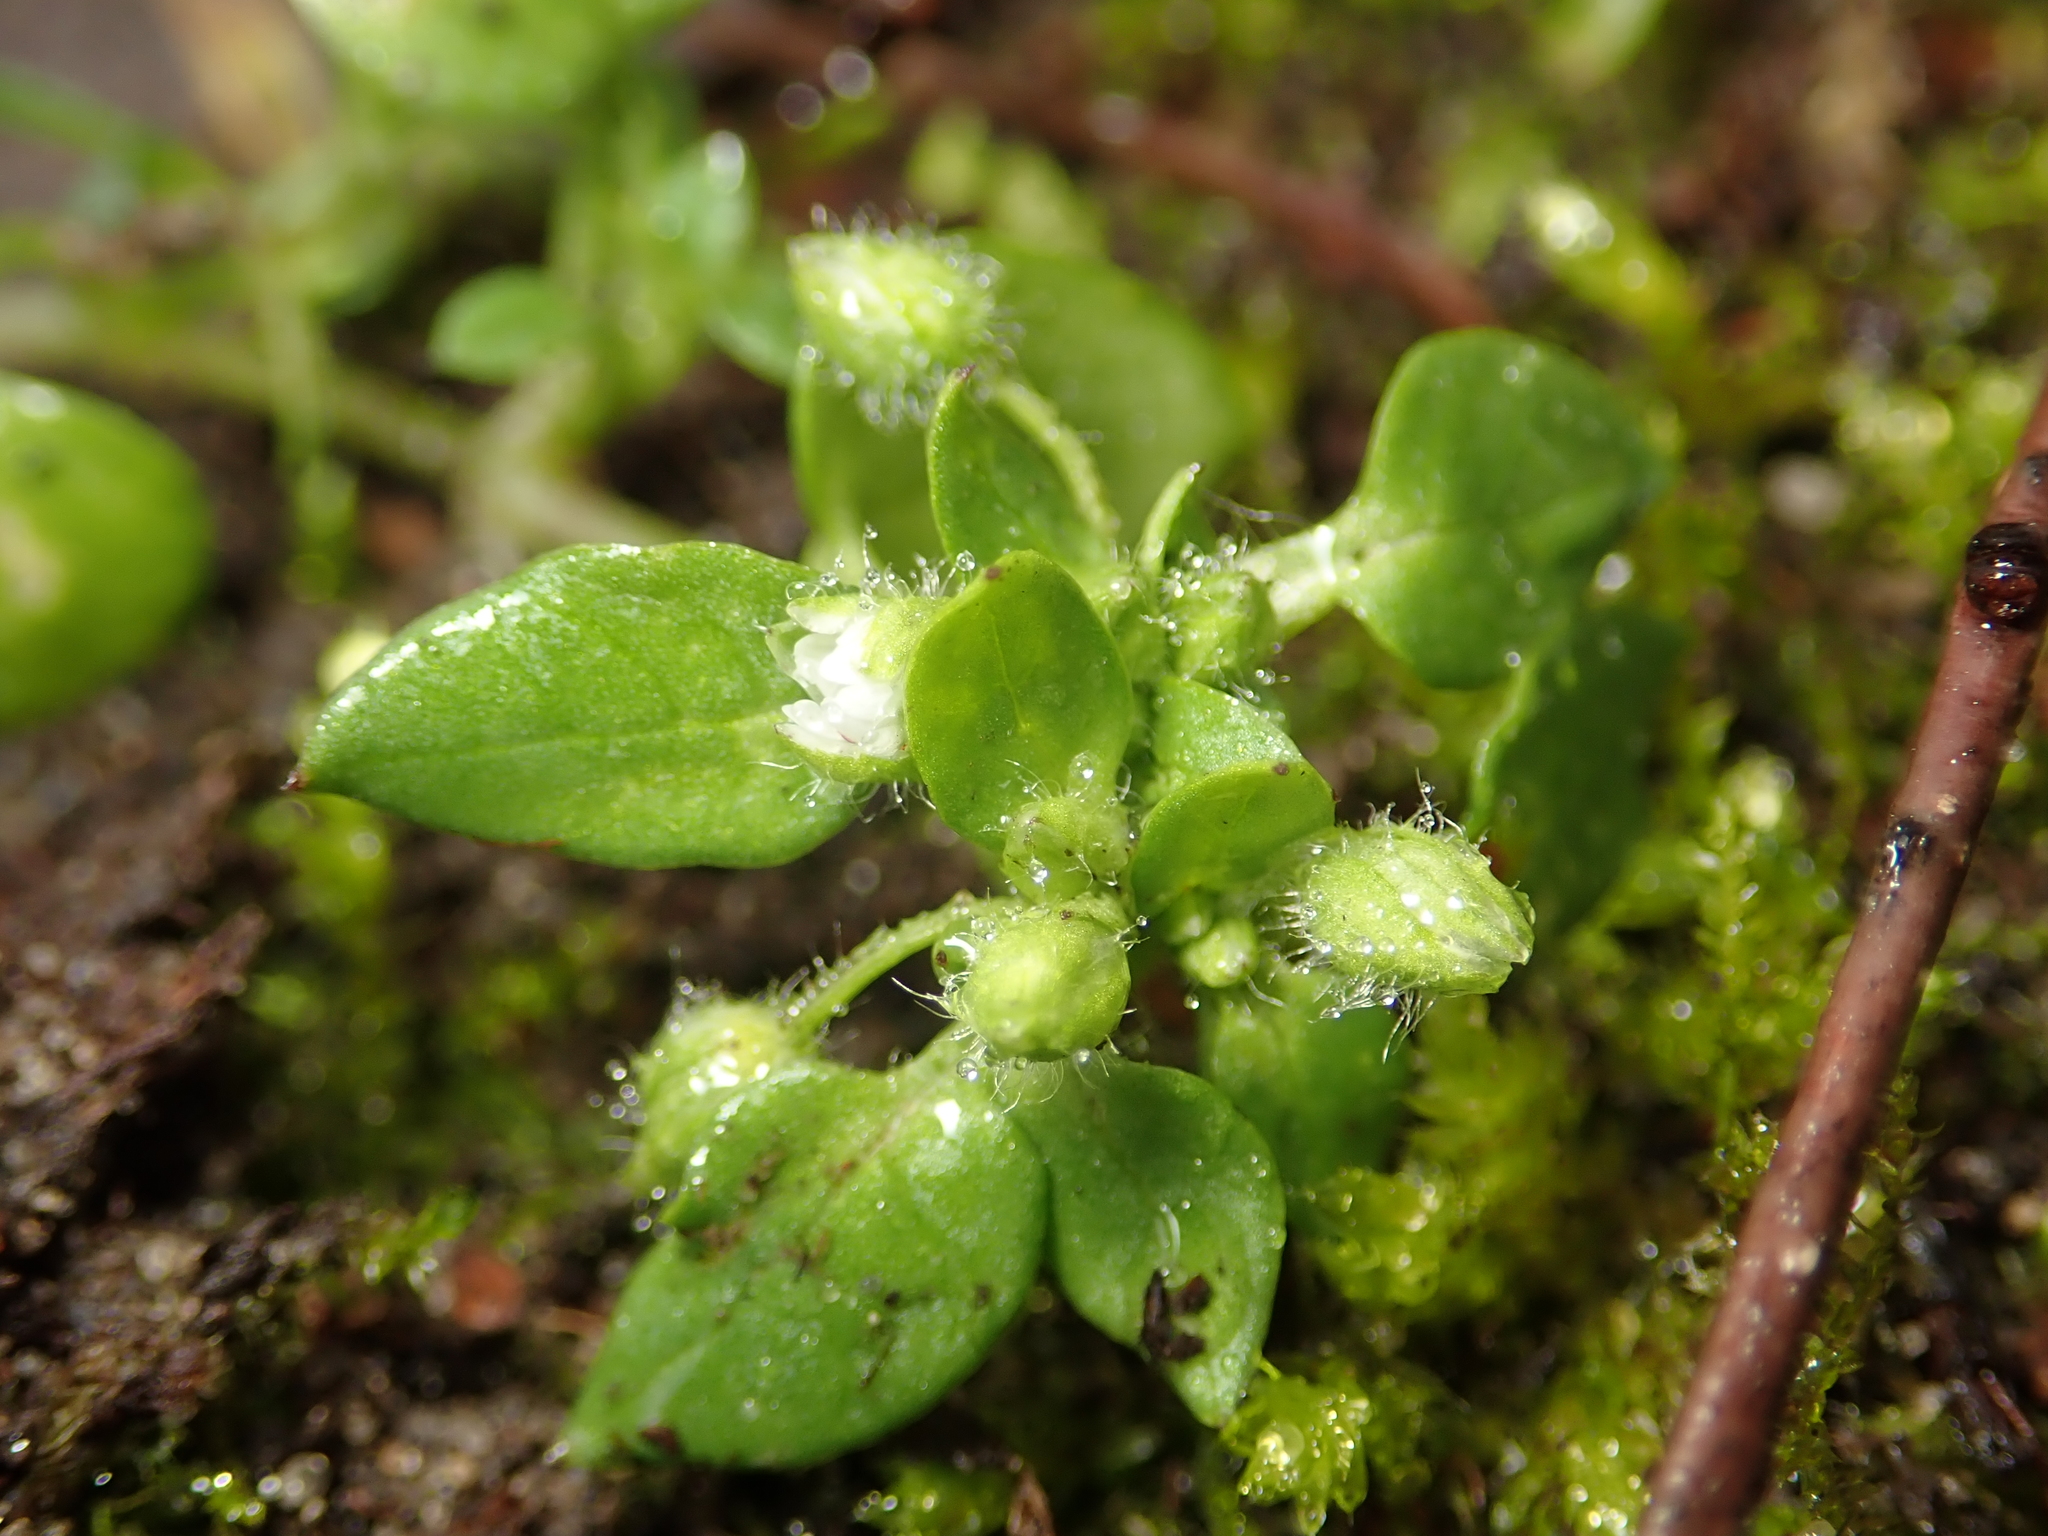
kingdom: Plantae
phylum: Tracheophyta
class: Magnoliopsida
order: Caryophyllales
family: Caryophyllaceae
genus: Stellaria
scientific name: Stellaria media
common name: Common chickweed
